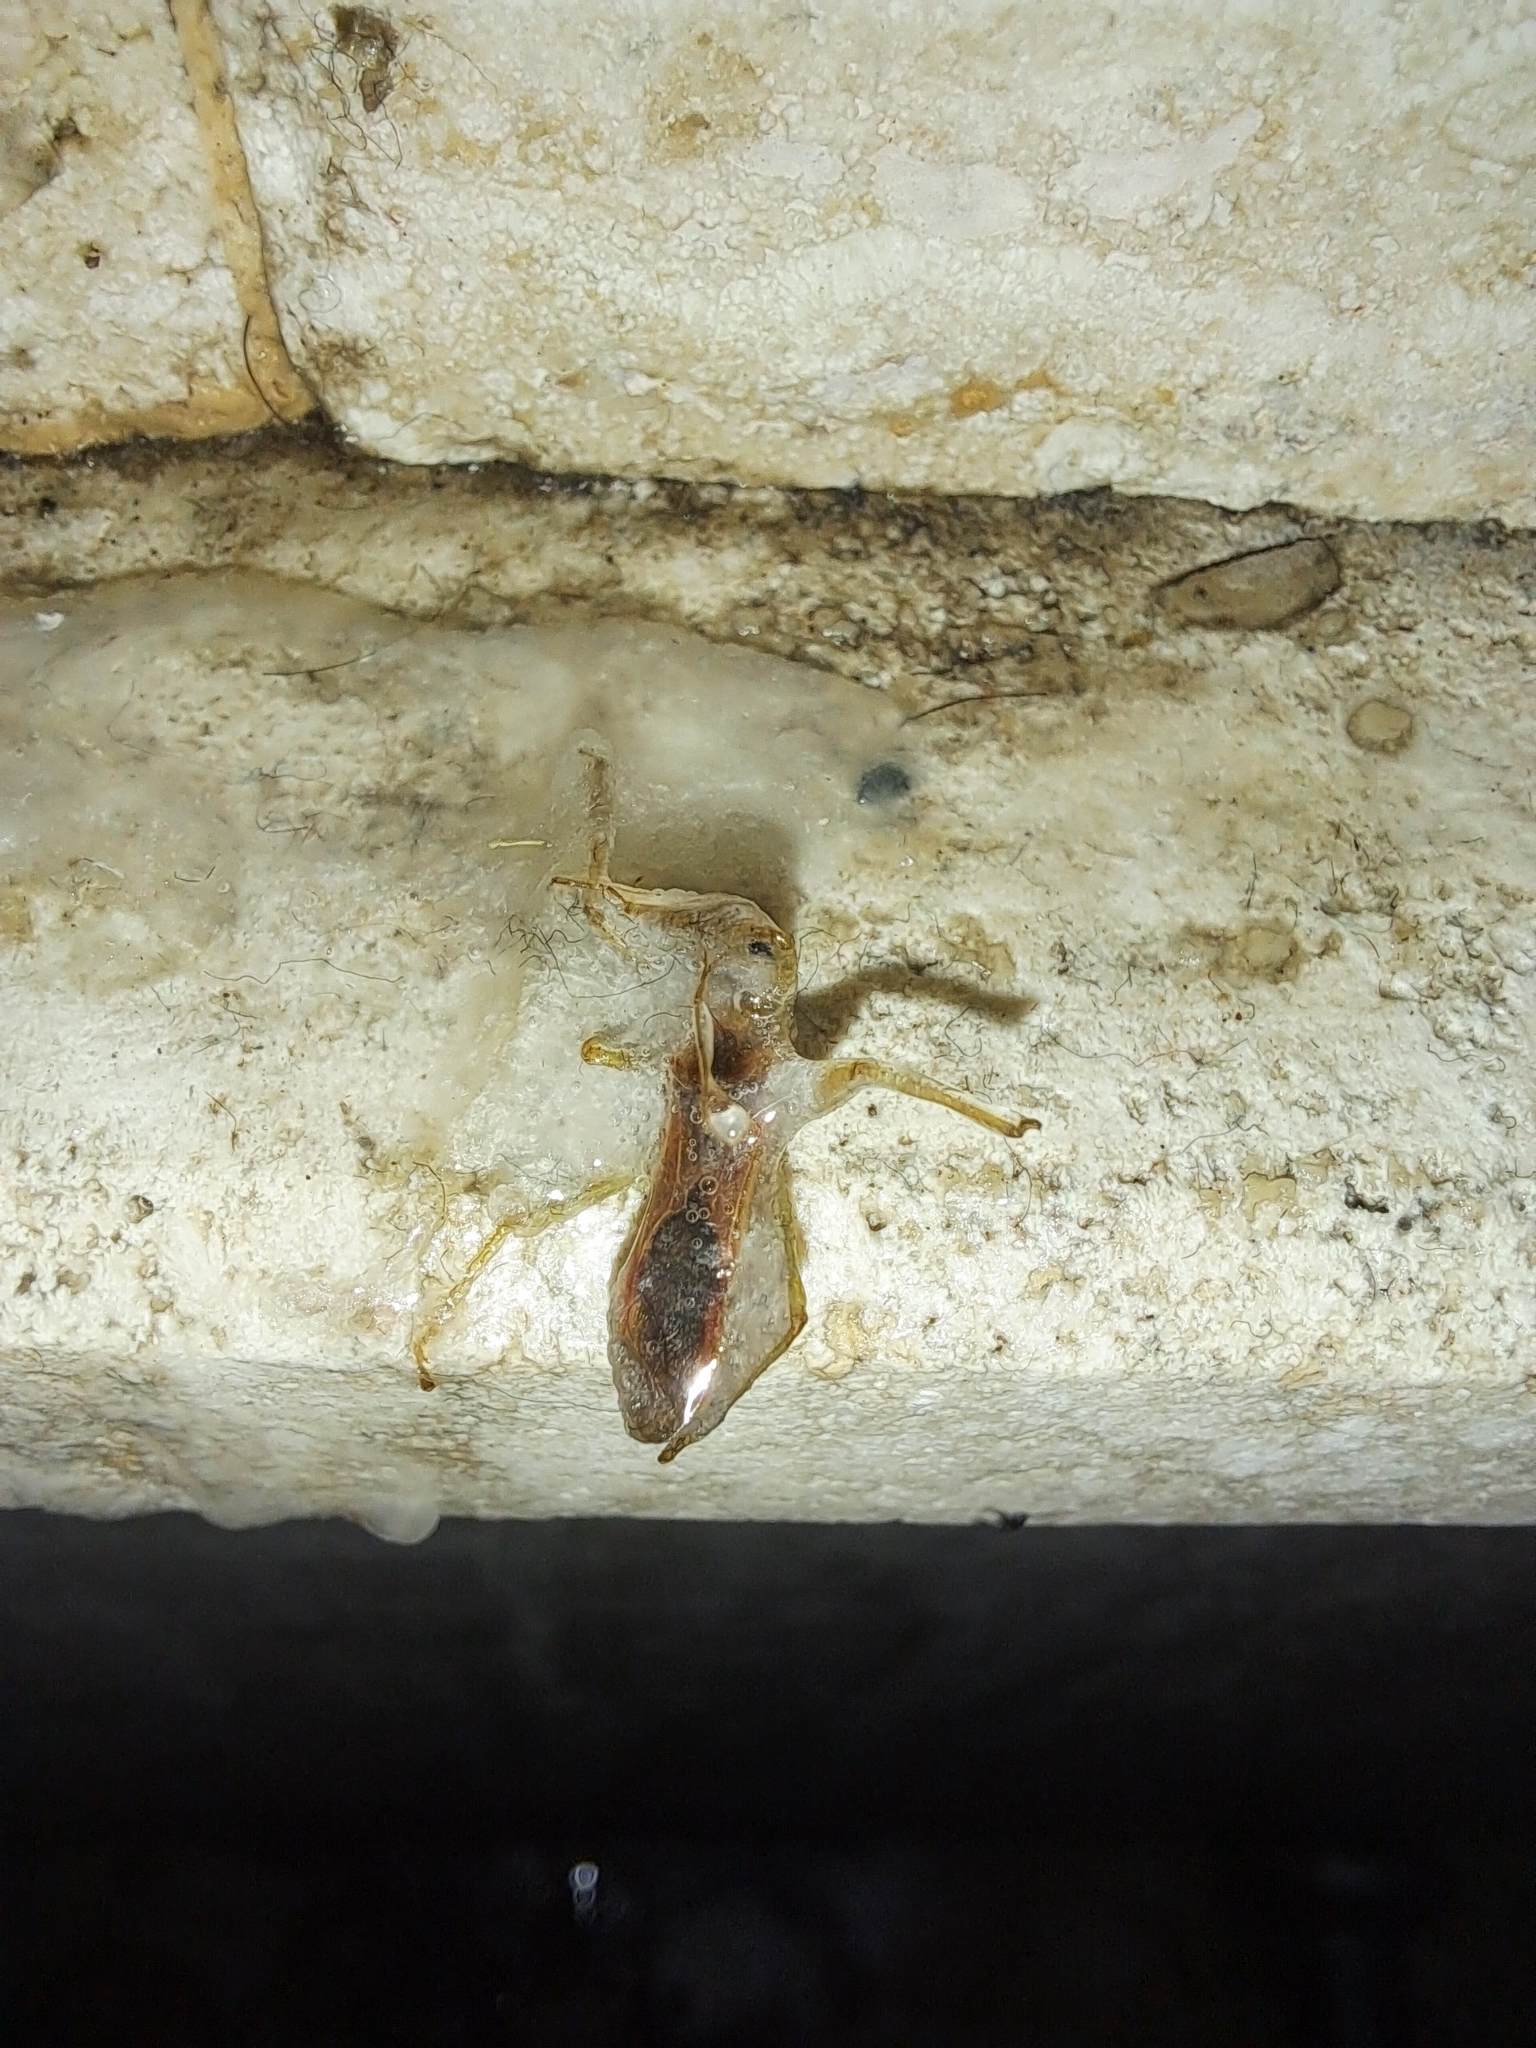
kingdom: Animalia
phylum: Arthropoda
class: Insecta
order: Hemiptera
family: Reduviidae
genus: Zelus
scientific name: Zelus renardii
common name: Assassin bug
